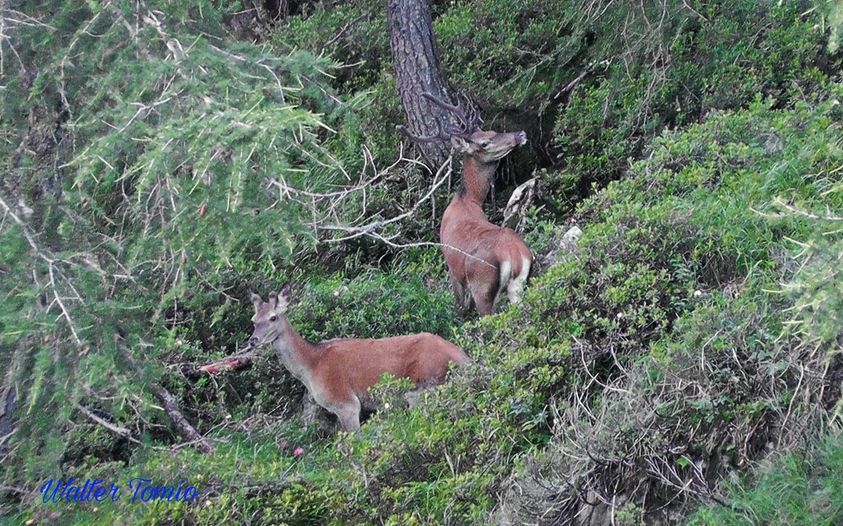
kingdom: Animalia
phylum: Chordata
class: Mammalia
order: Artiodactyla
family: Cervidae
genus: Cervus
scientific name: Cervus elaphus
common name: Red deer
